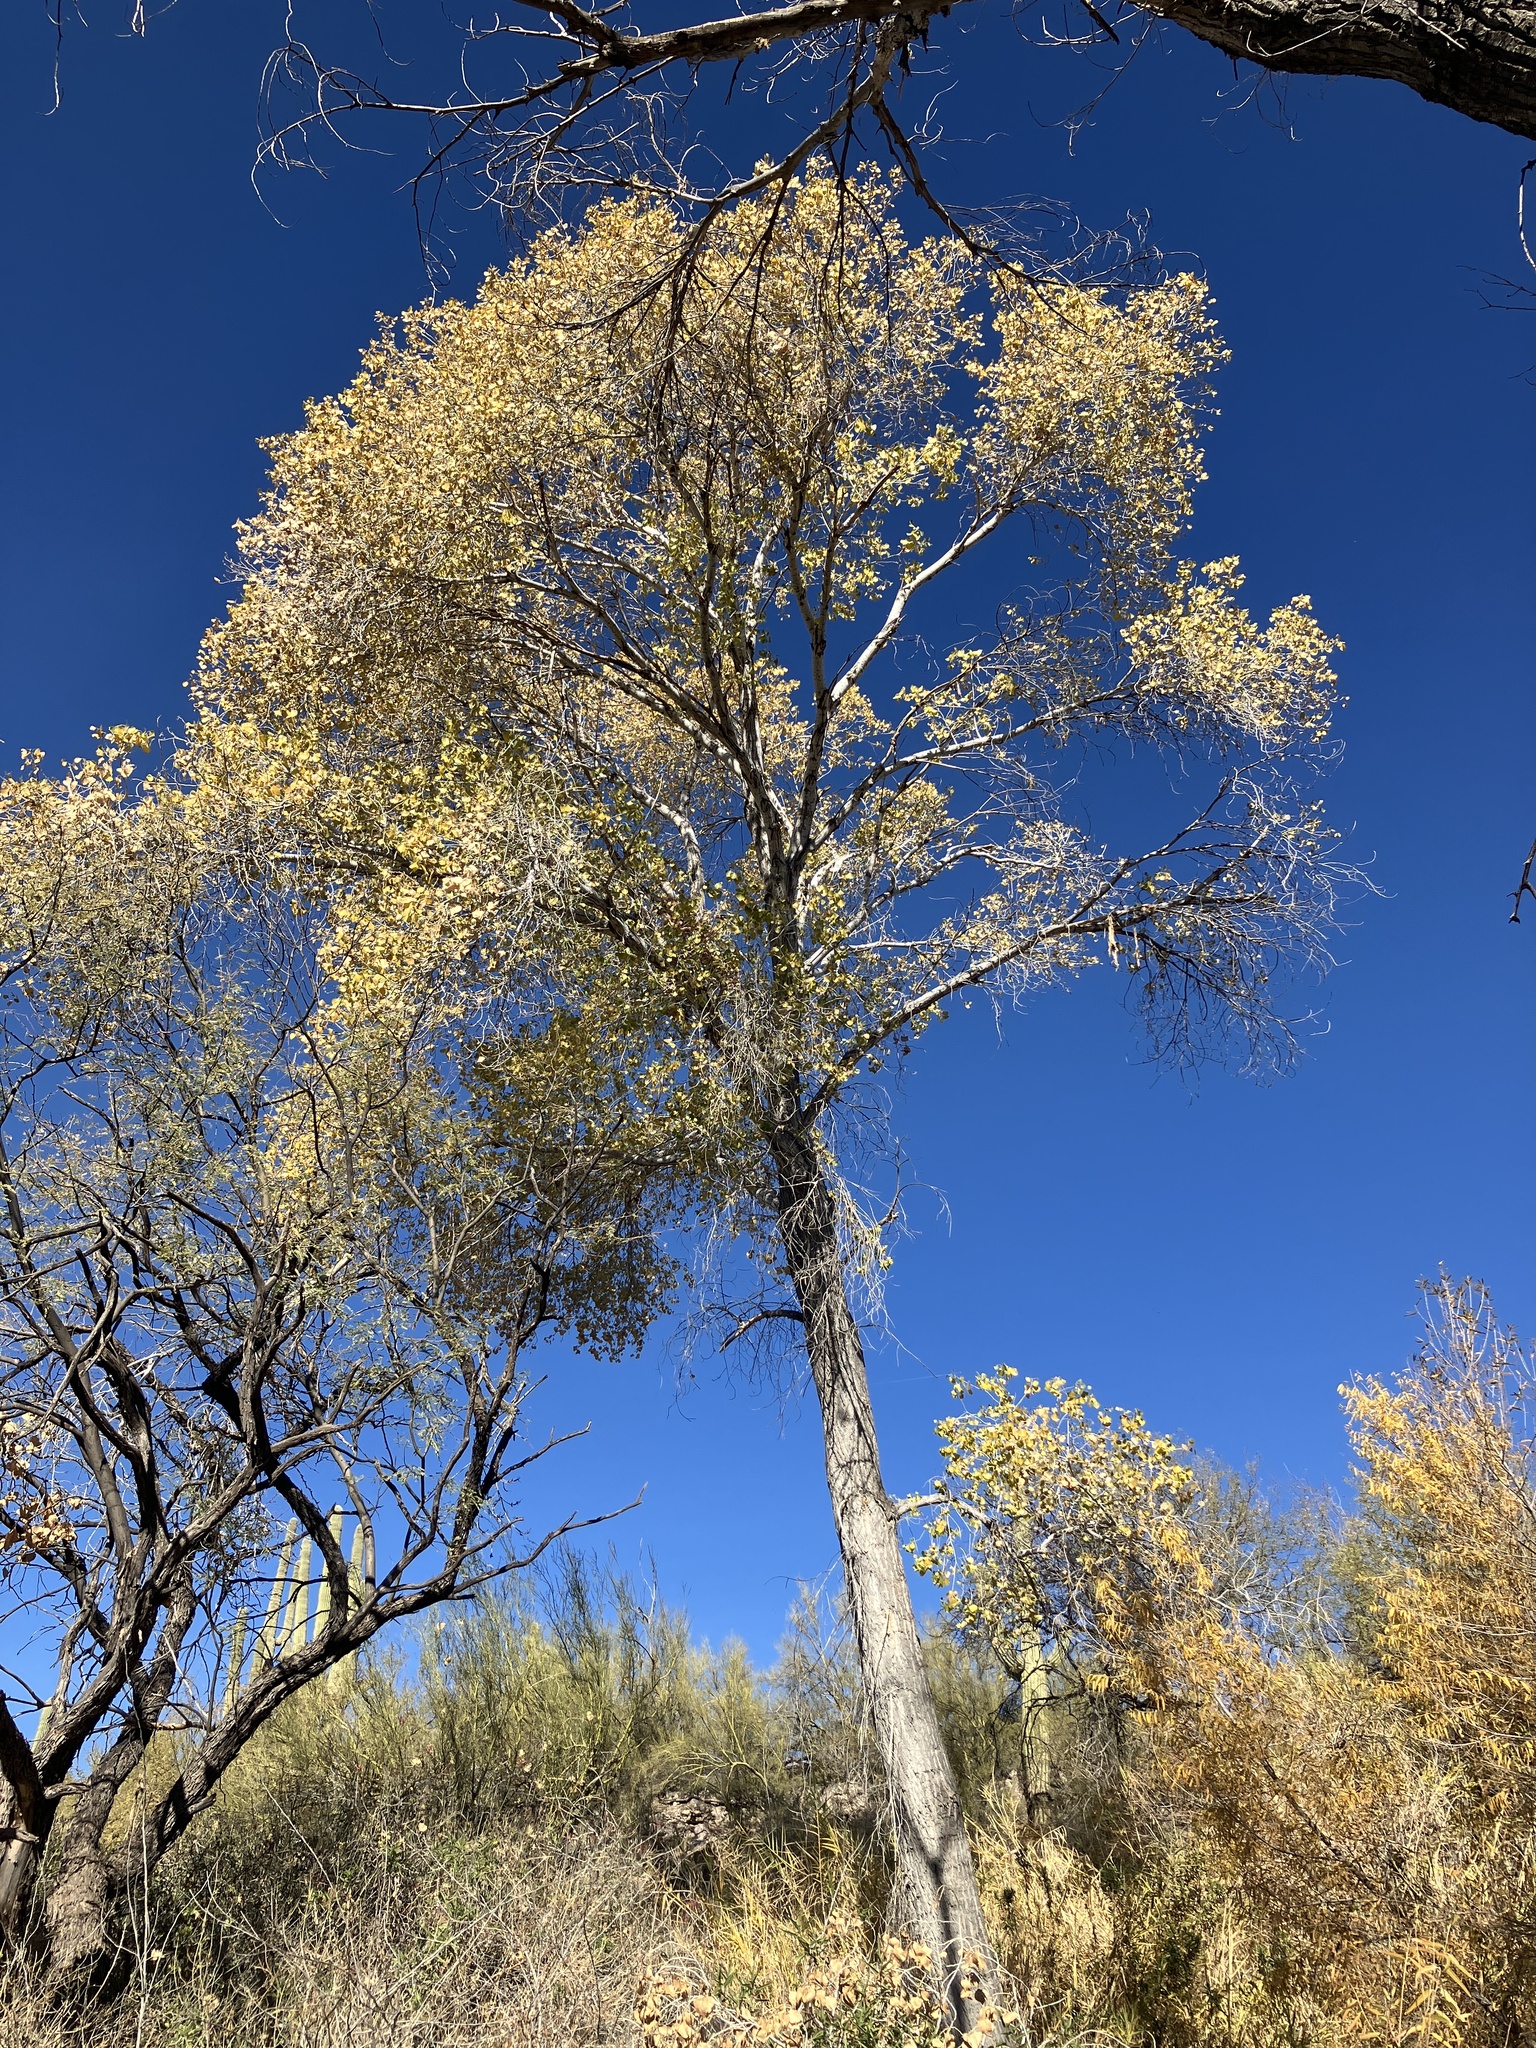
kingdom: Plantae
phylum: Tracheophyta
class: Magnoliopsida
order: Malpighiales
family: Salicaceae
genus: Populus
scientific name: Populus fremontii
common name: Fremont's cottonwood
